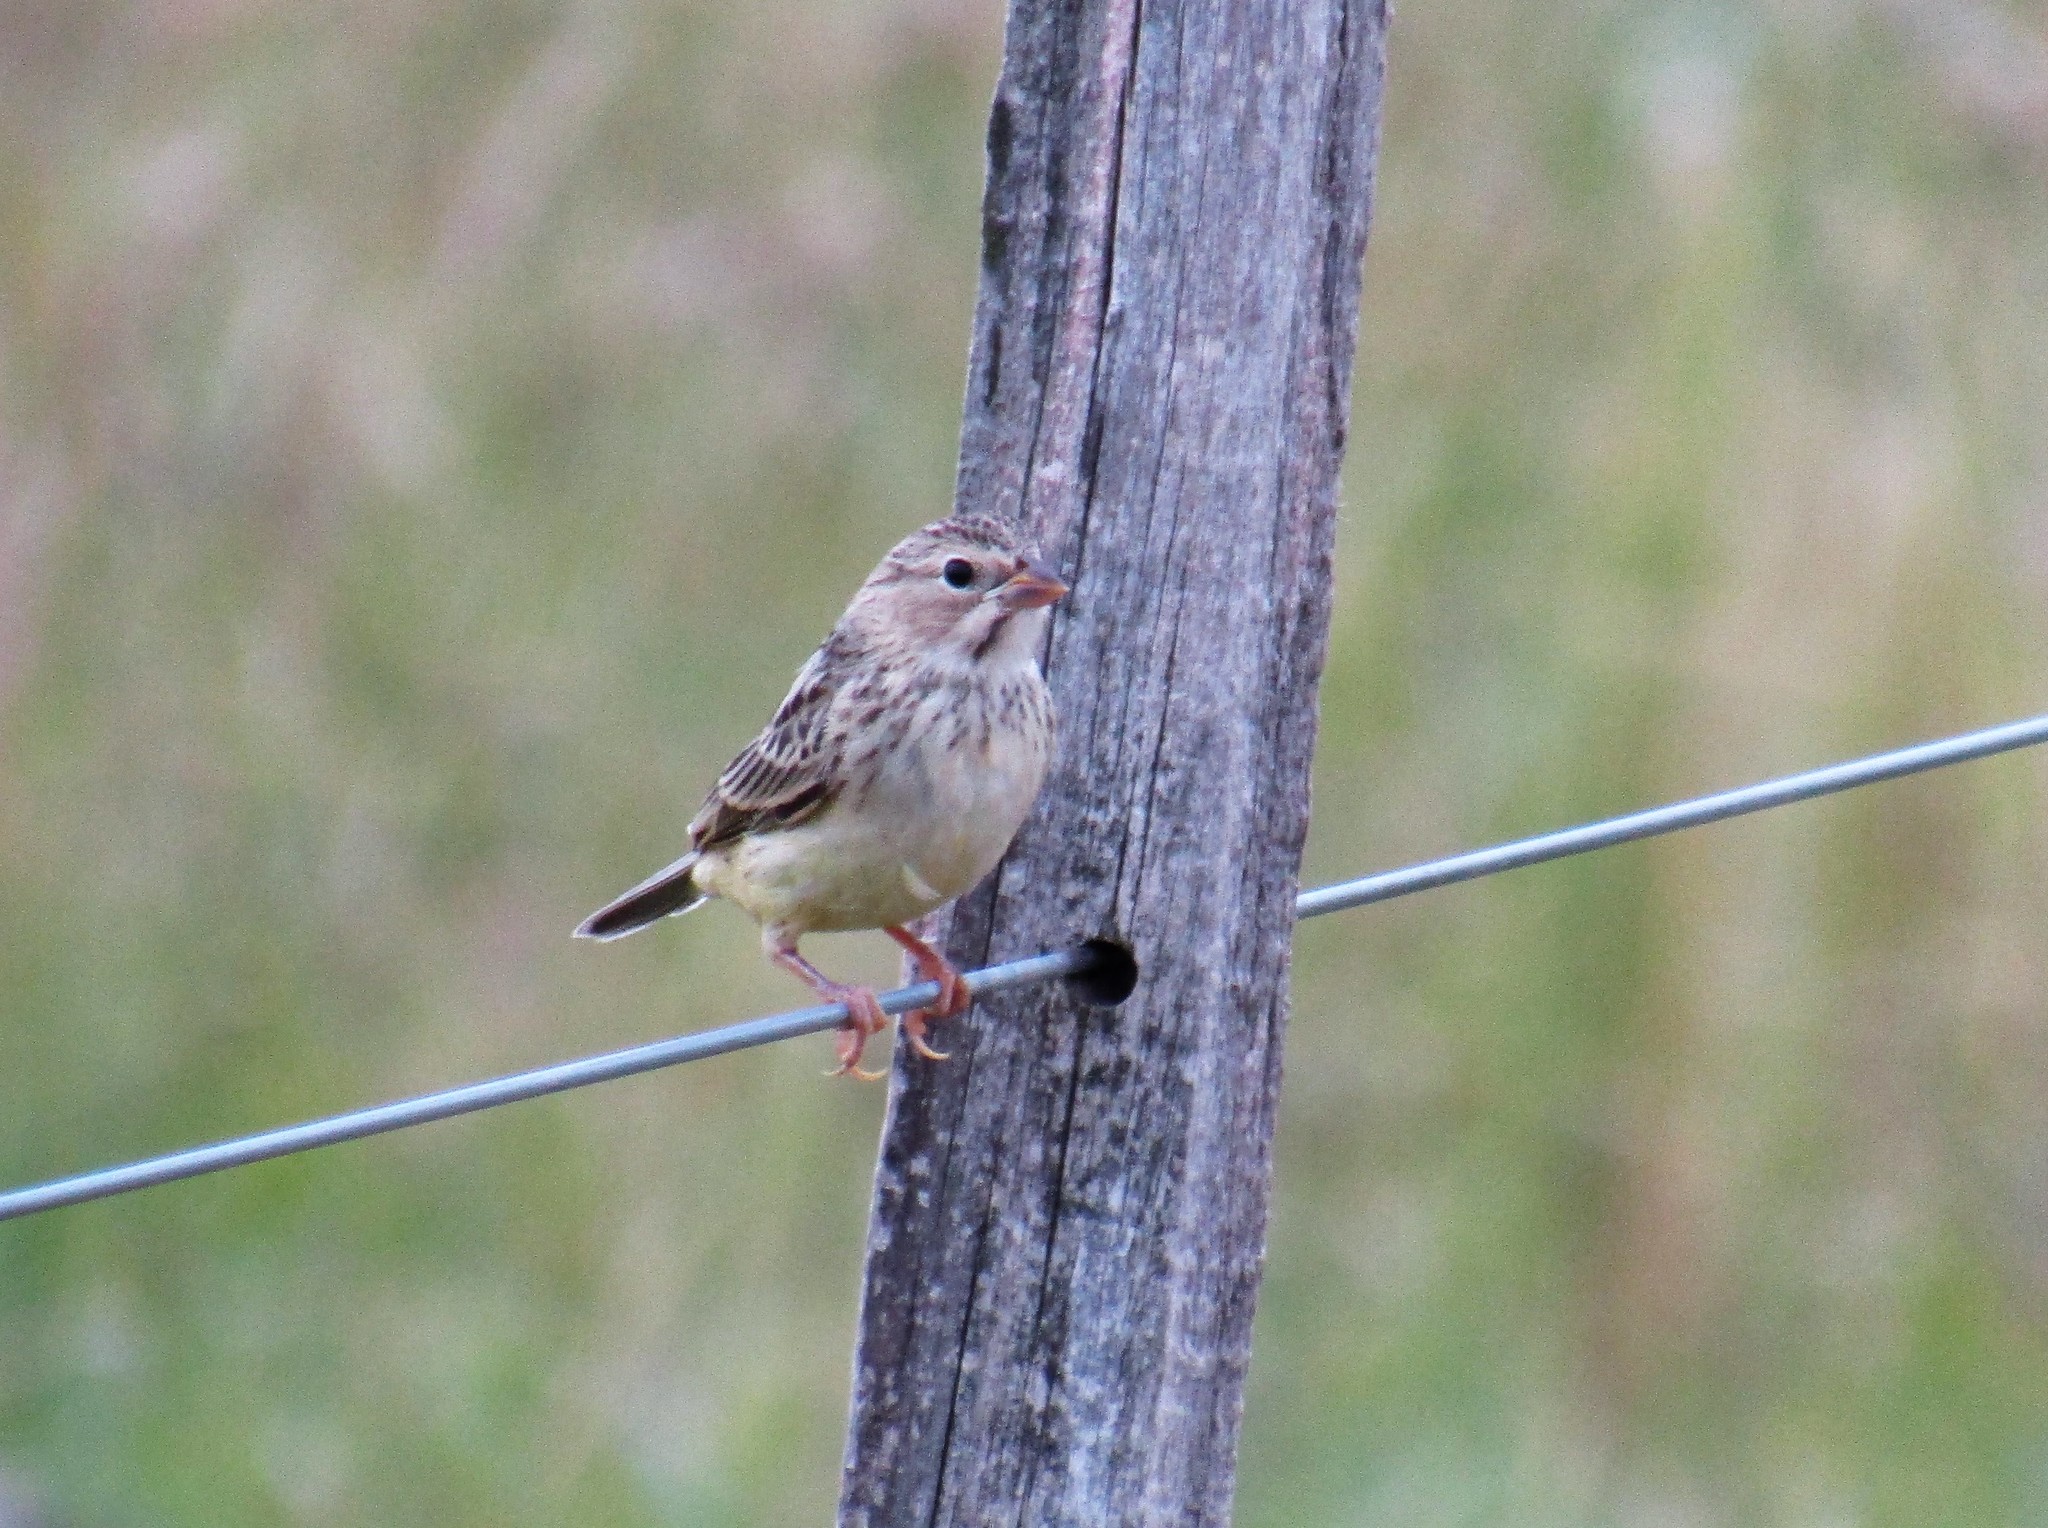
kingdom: Animalia
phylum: Chordata
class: Aves
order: Passeriformes
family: Thraupidae
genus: Sicalis
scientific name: Sicalis luteola
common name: Grassland yellow-finch
